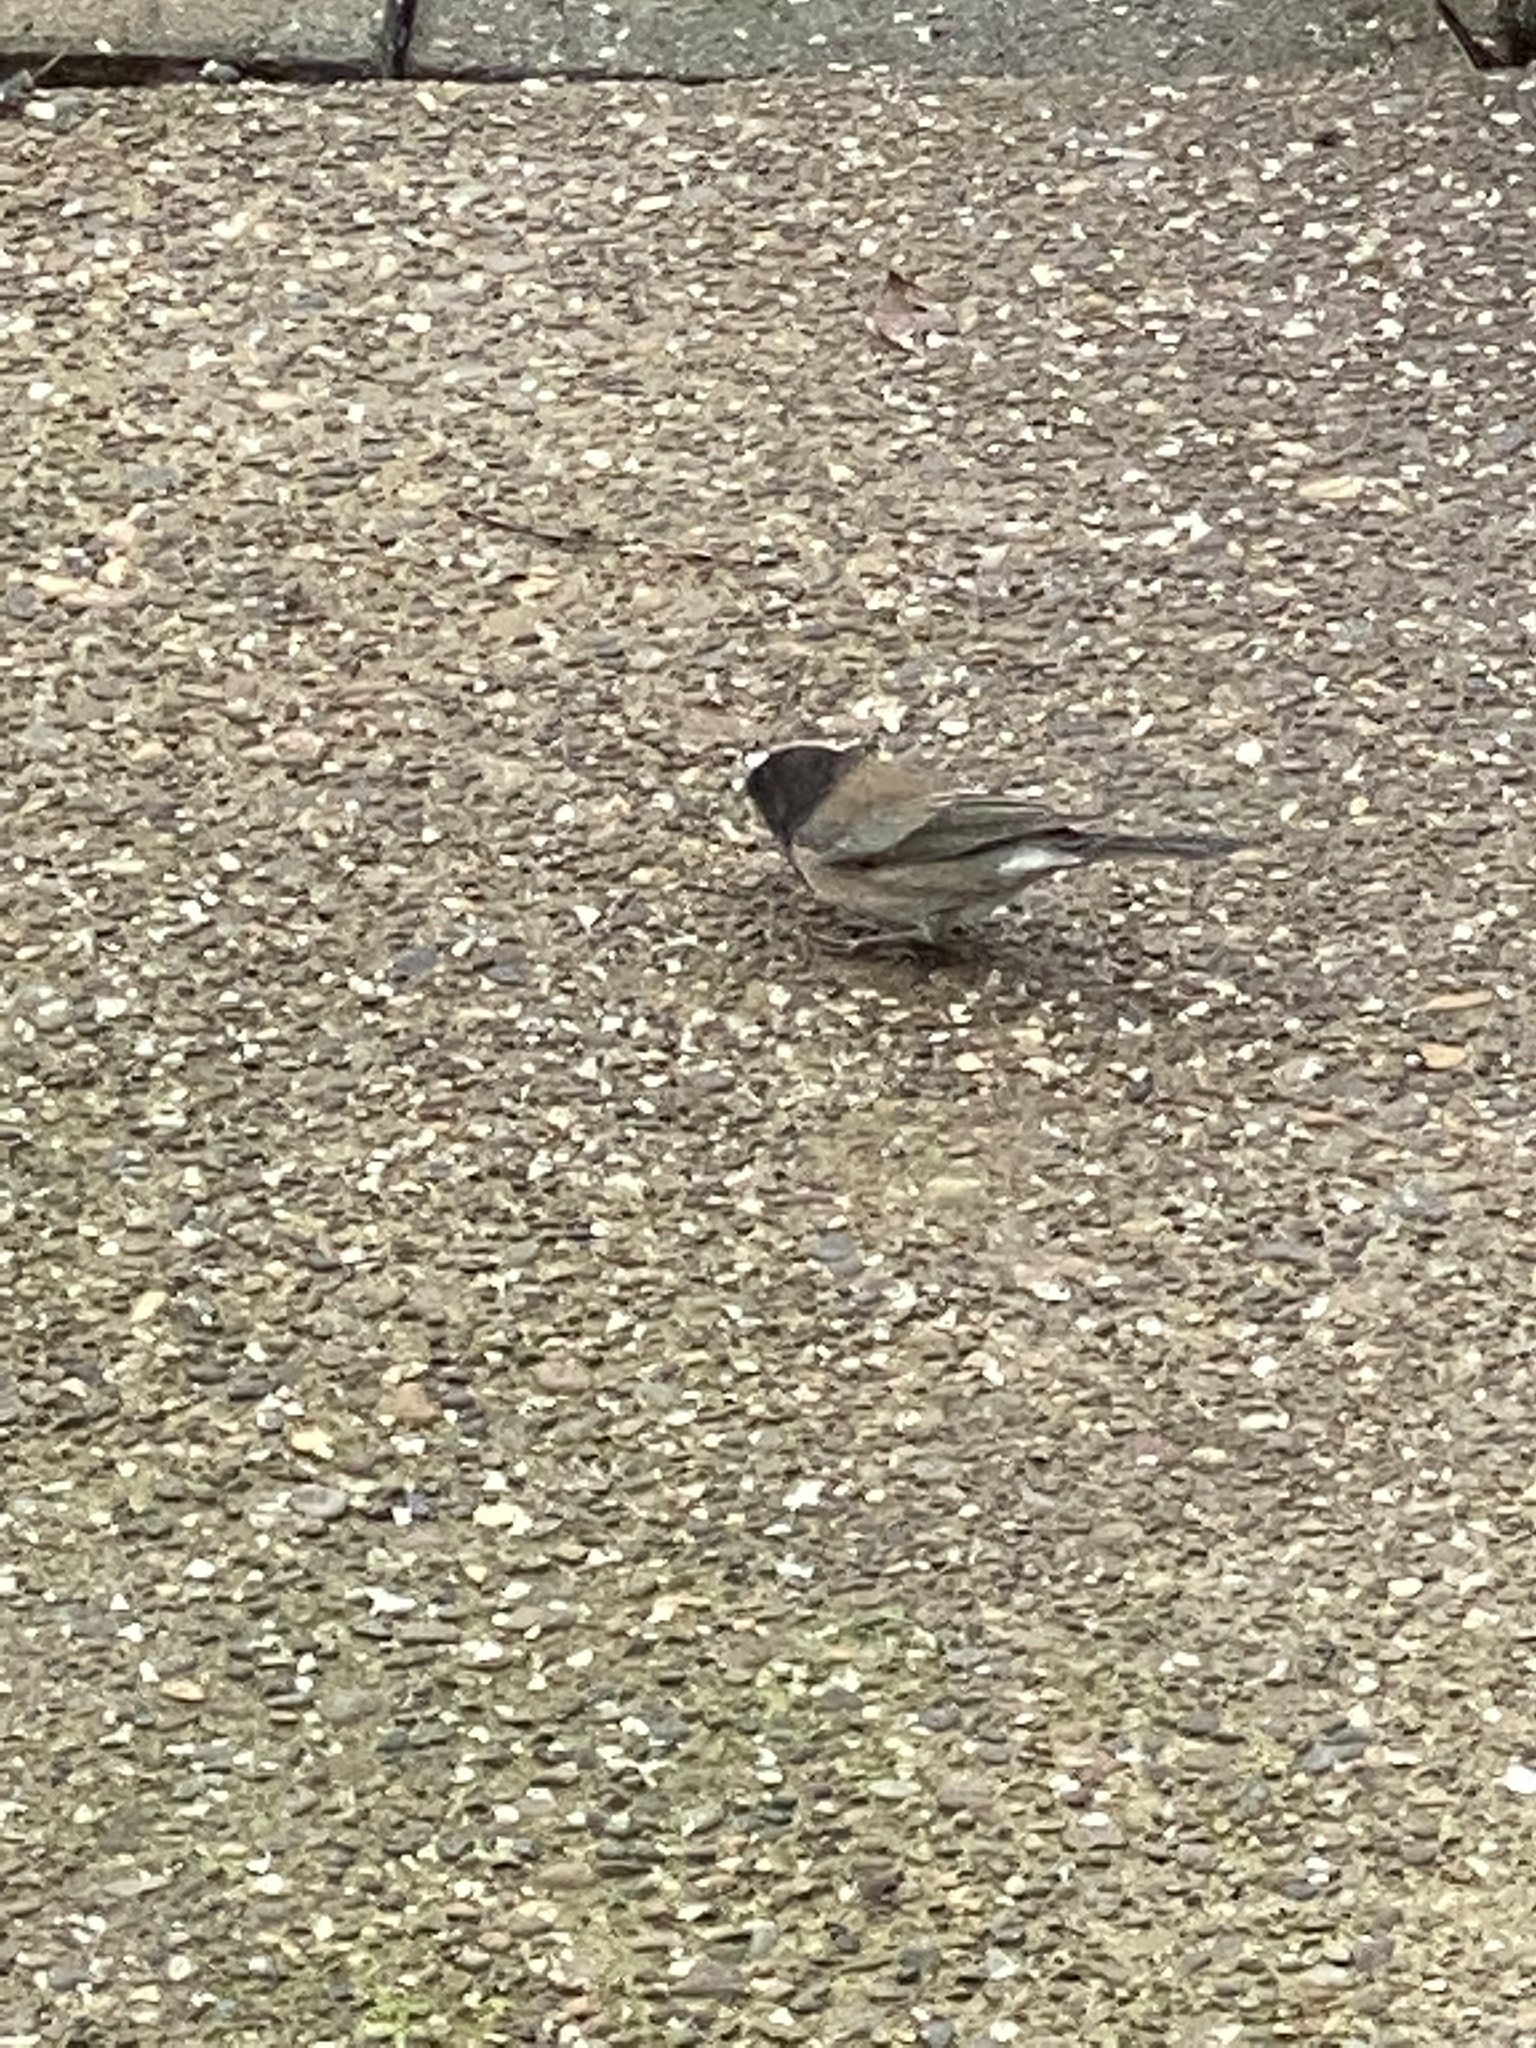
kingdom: Animalia
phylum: Chordata
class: Aves
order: Passeriformes
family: Passerellidae
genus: Junco
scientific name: Junco hyemalis
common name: Dark-eyed junco
